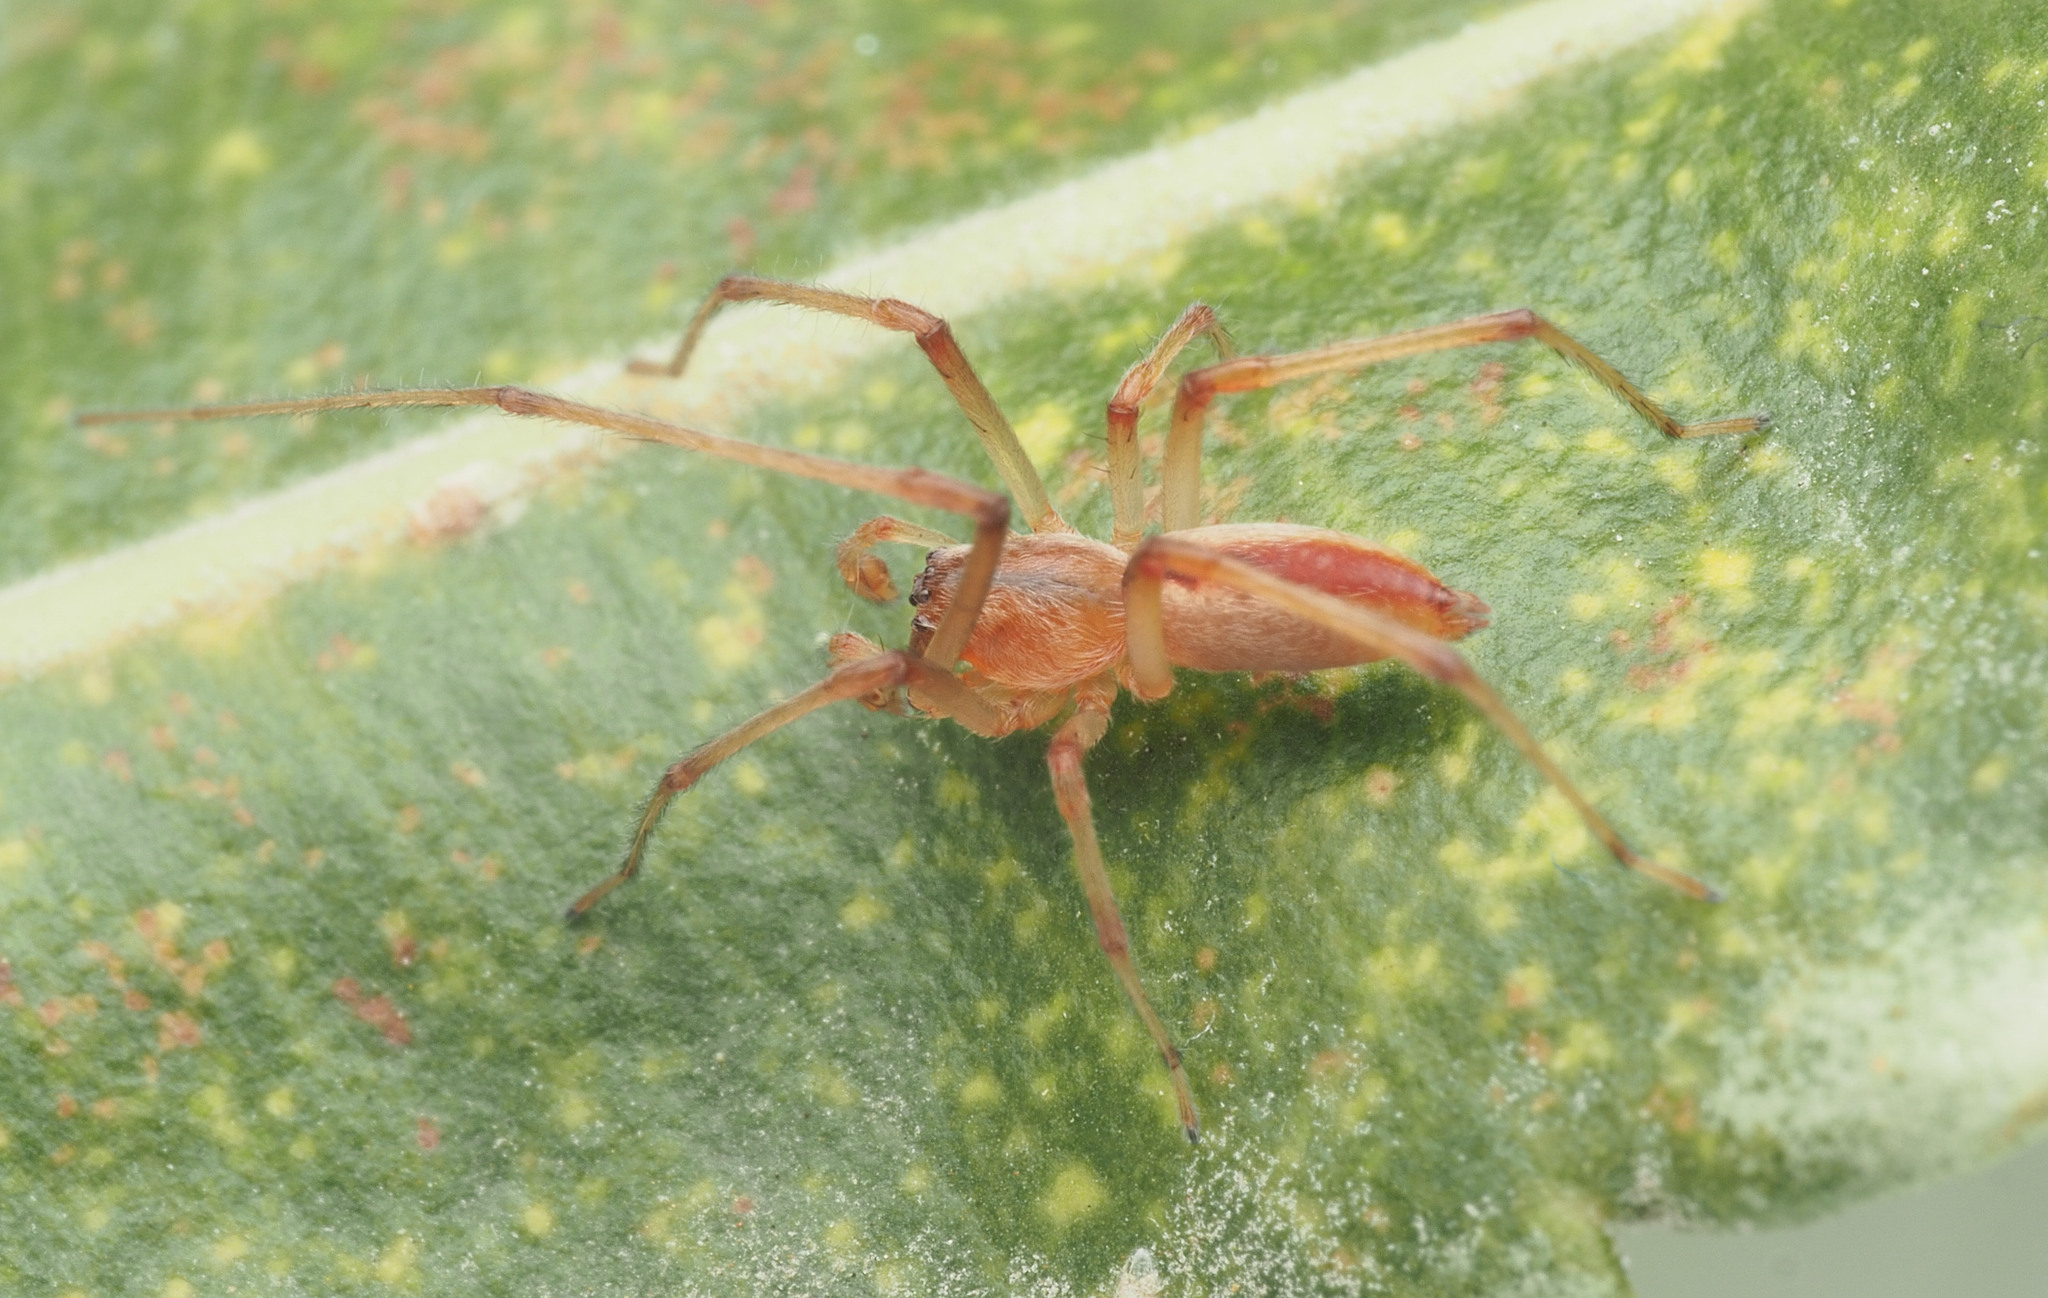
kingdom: Animalia
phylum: Arthropoda
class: Arachnida
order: Araneae
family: Cheiracanthiidae
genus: Eutittha
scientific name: Eutittha mordax
